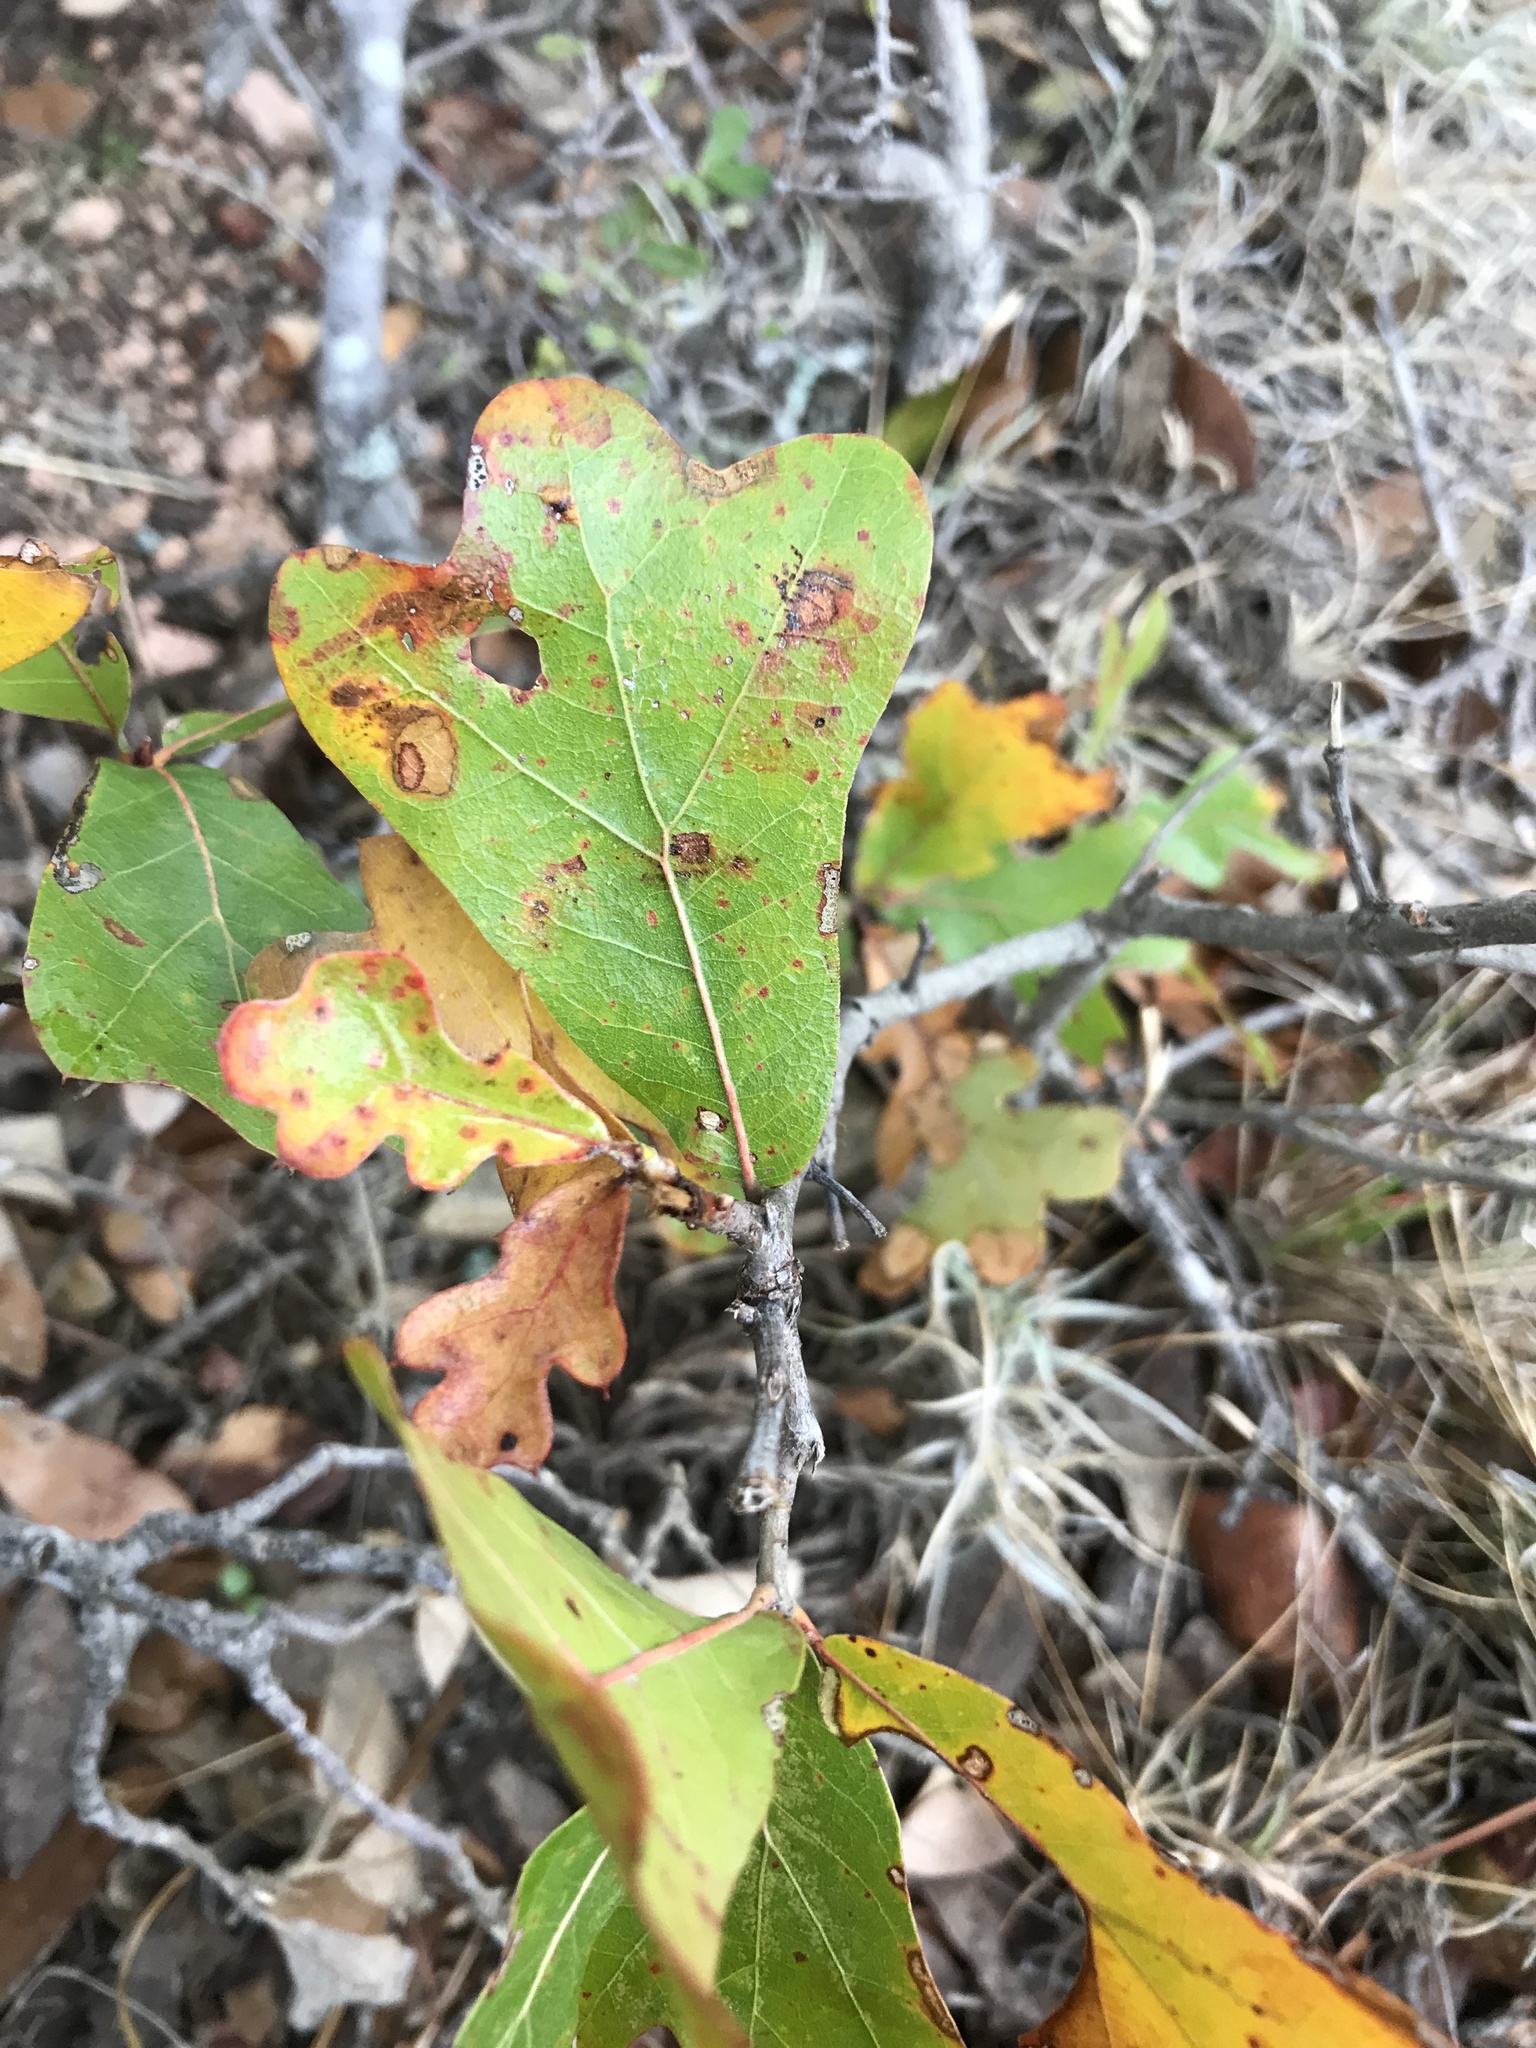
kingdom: Plantae
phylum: Tracheophyta
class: Magnoliopsida
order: Fagales
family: Fagaceae
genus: Quercus
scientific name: Quercus marilandica
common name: Blackjack oak
